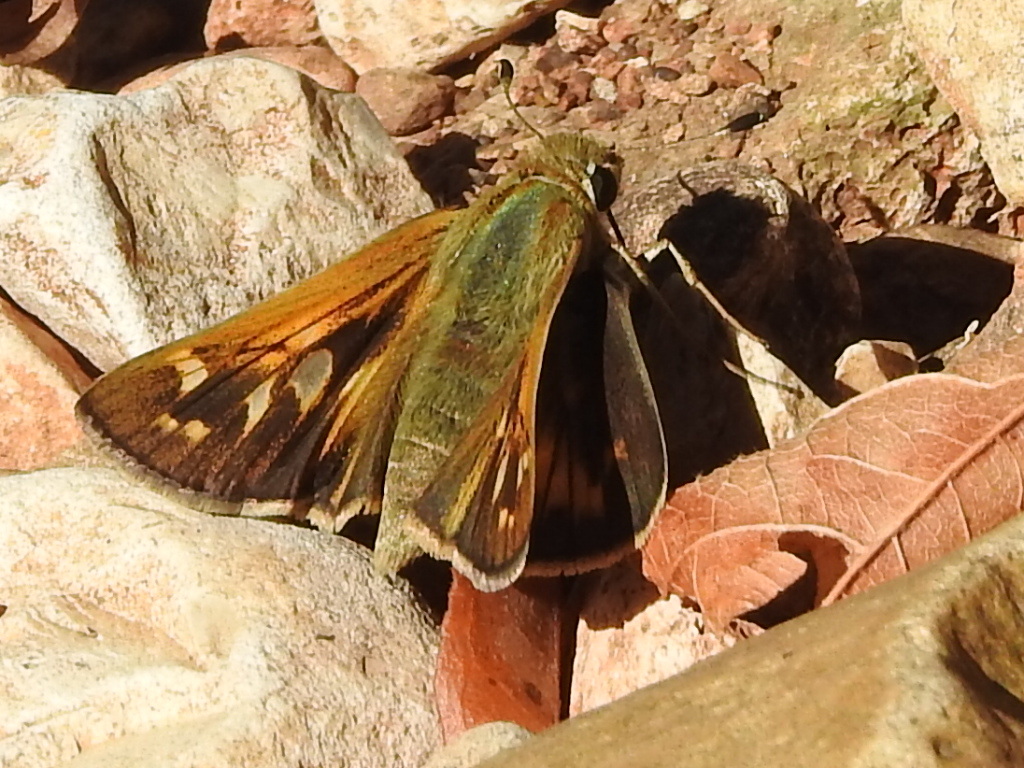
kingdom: Animalia
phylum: Arthropoda
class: Insecta
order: Lepidoptera
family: Hesperiidae
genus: Atalopedes
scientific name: Atalopedes
